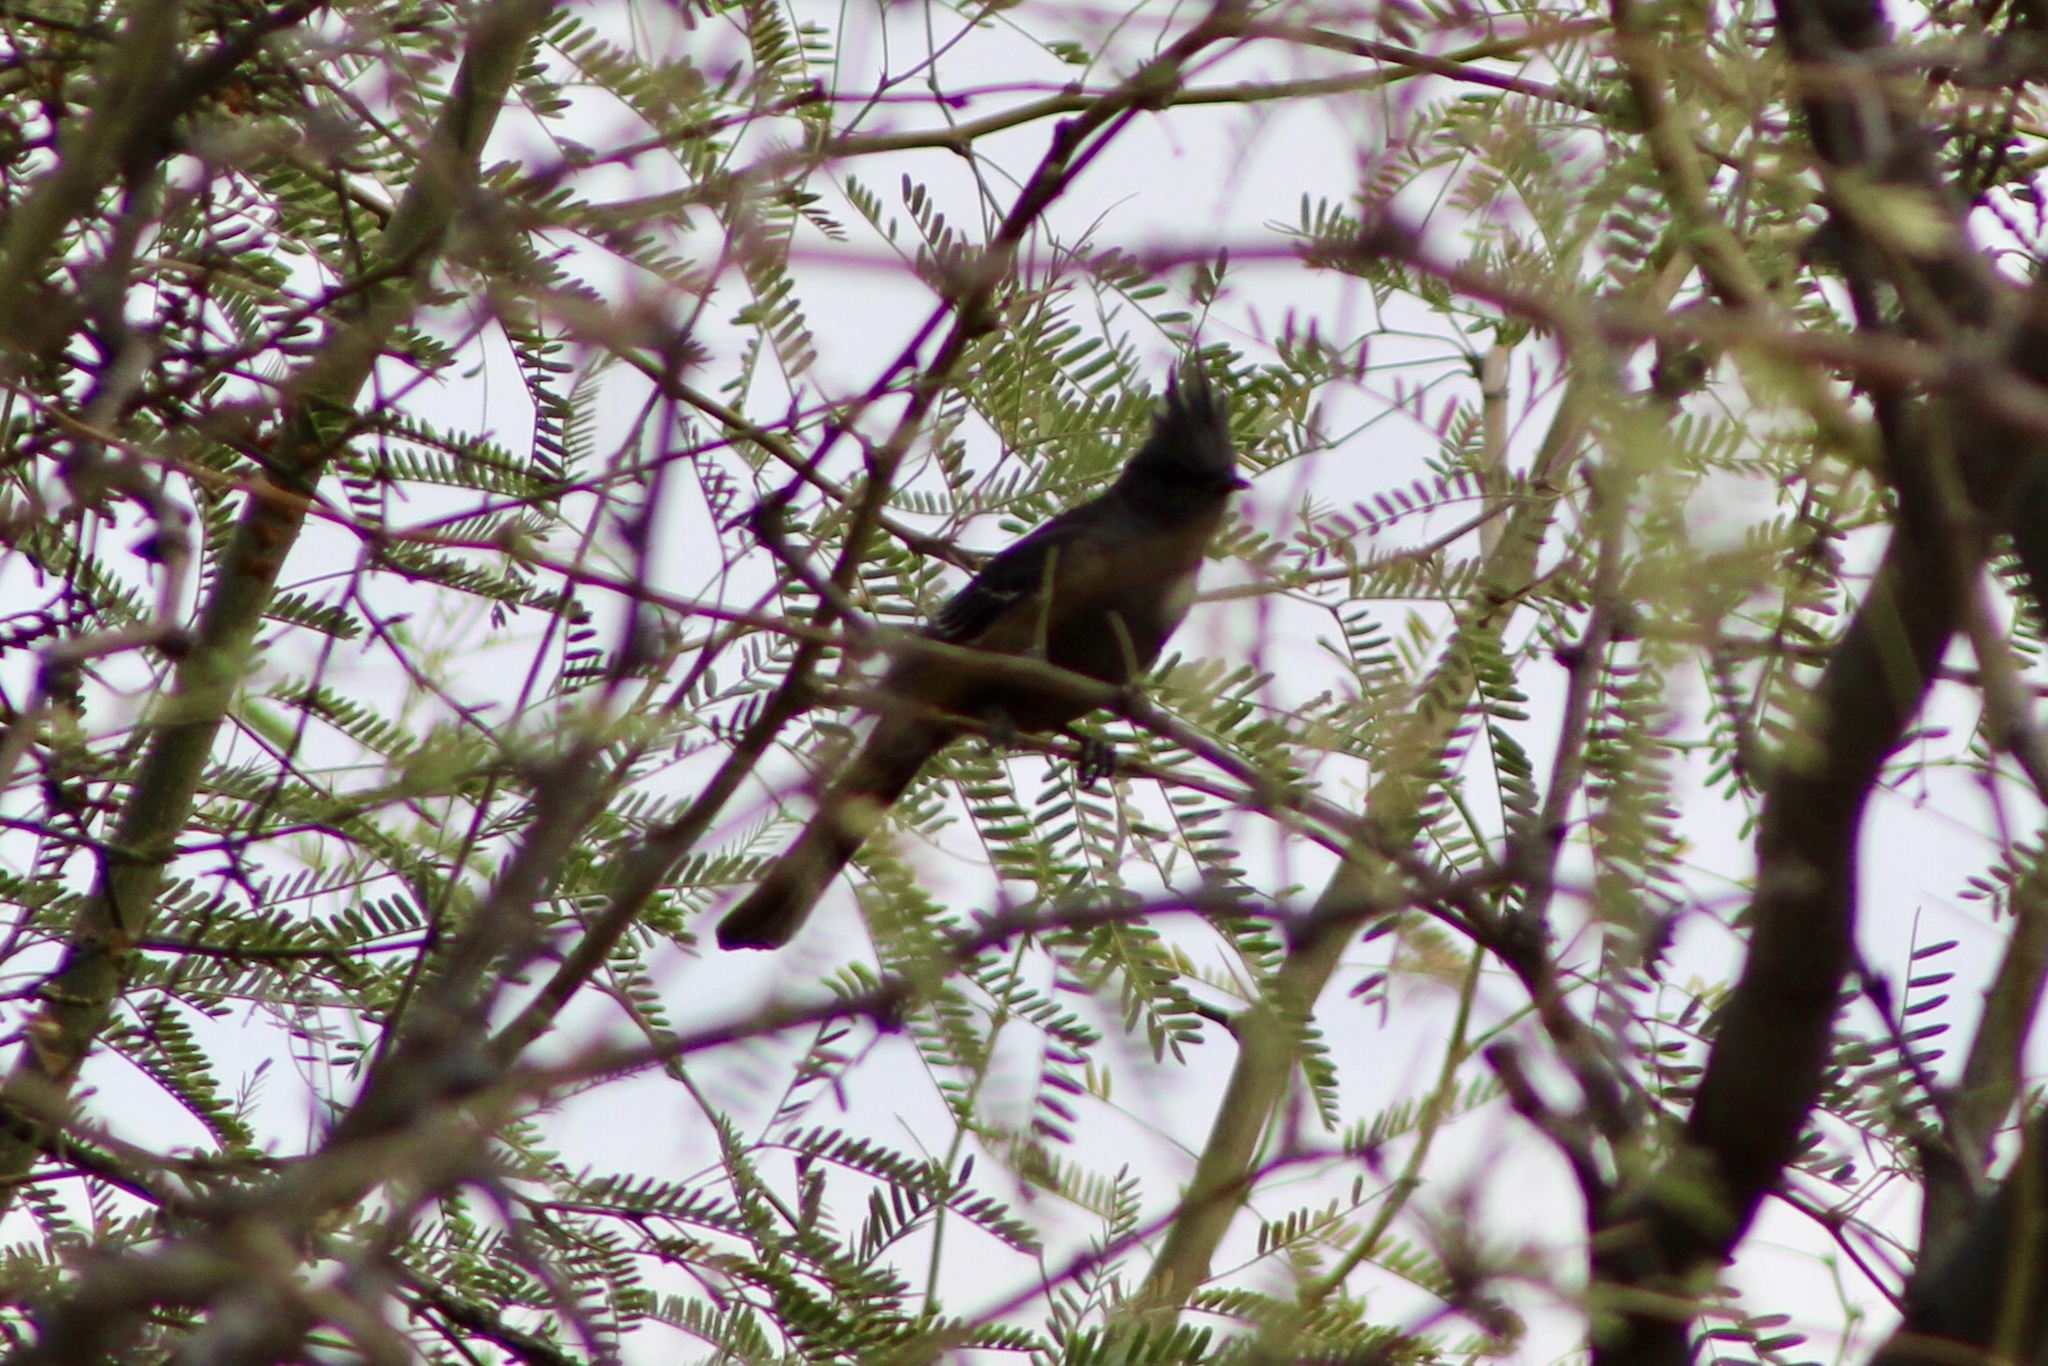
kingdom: Animalia
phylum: Chordata
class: Aves
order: Passeriformes
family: Ptilogonatidae
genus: Phainopepla
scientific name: Phainopepla nitens
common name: Phainopepla
